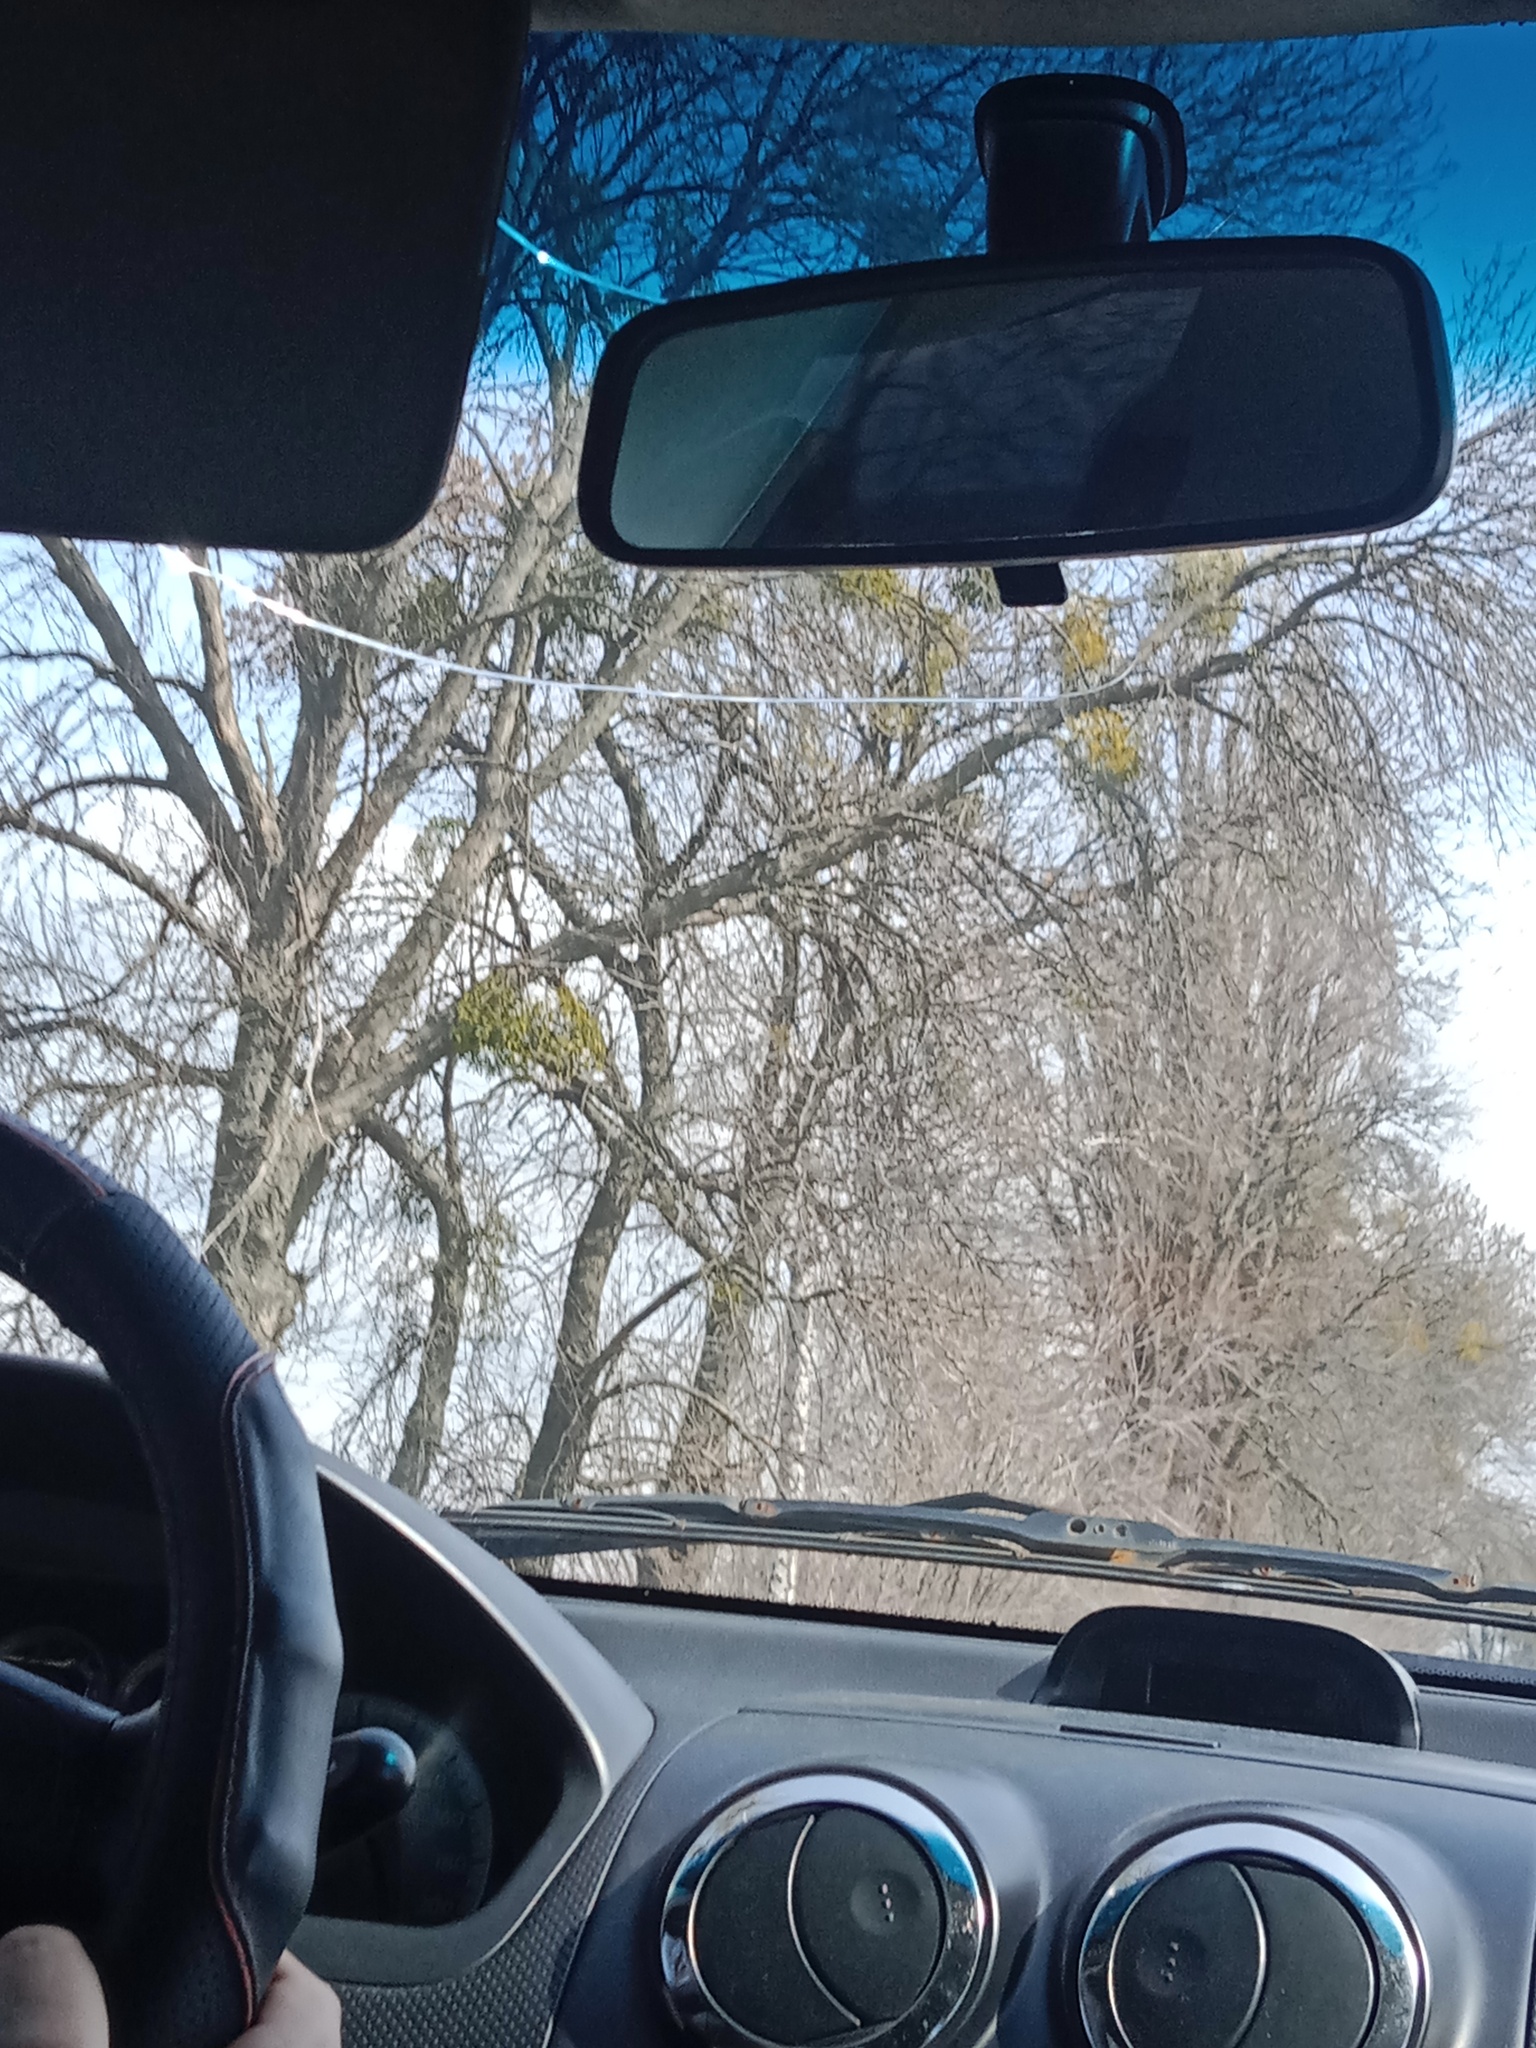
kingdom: Plantae
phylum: Tracheophyta
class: Magnoliopsida
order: Santalales
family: Viscaceae
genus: Viscum
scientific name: Viscum album
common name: Mistletoe
